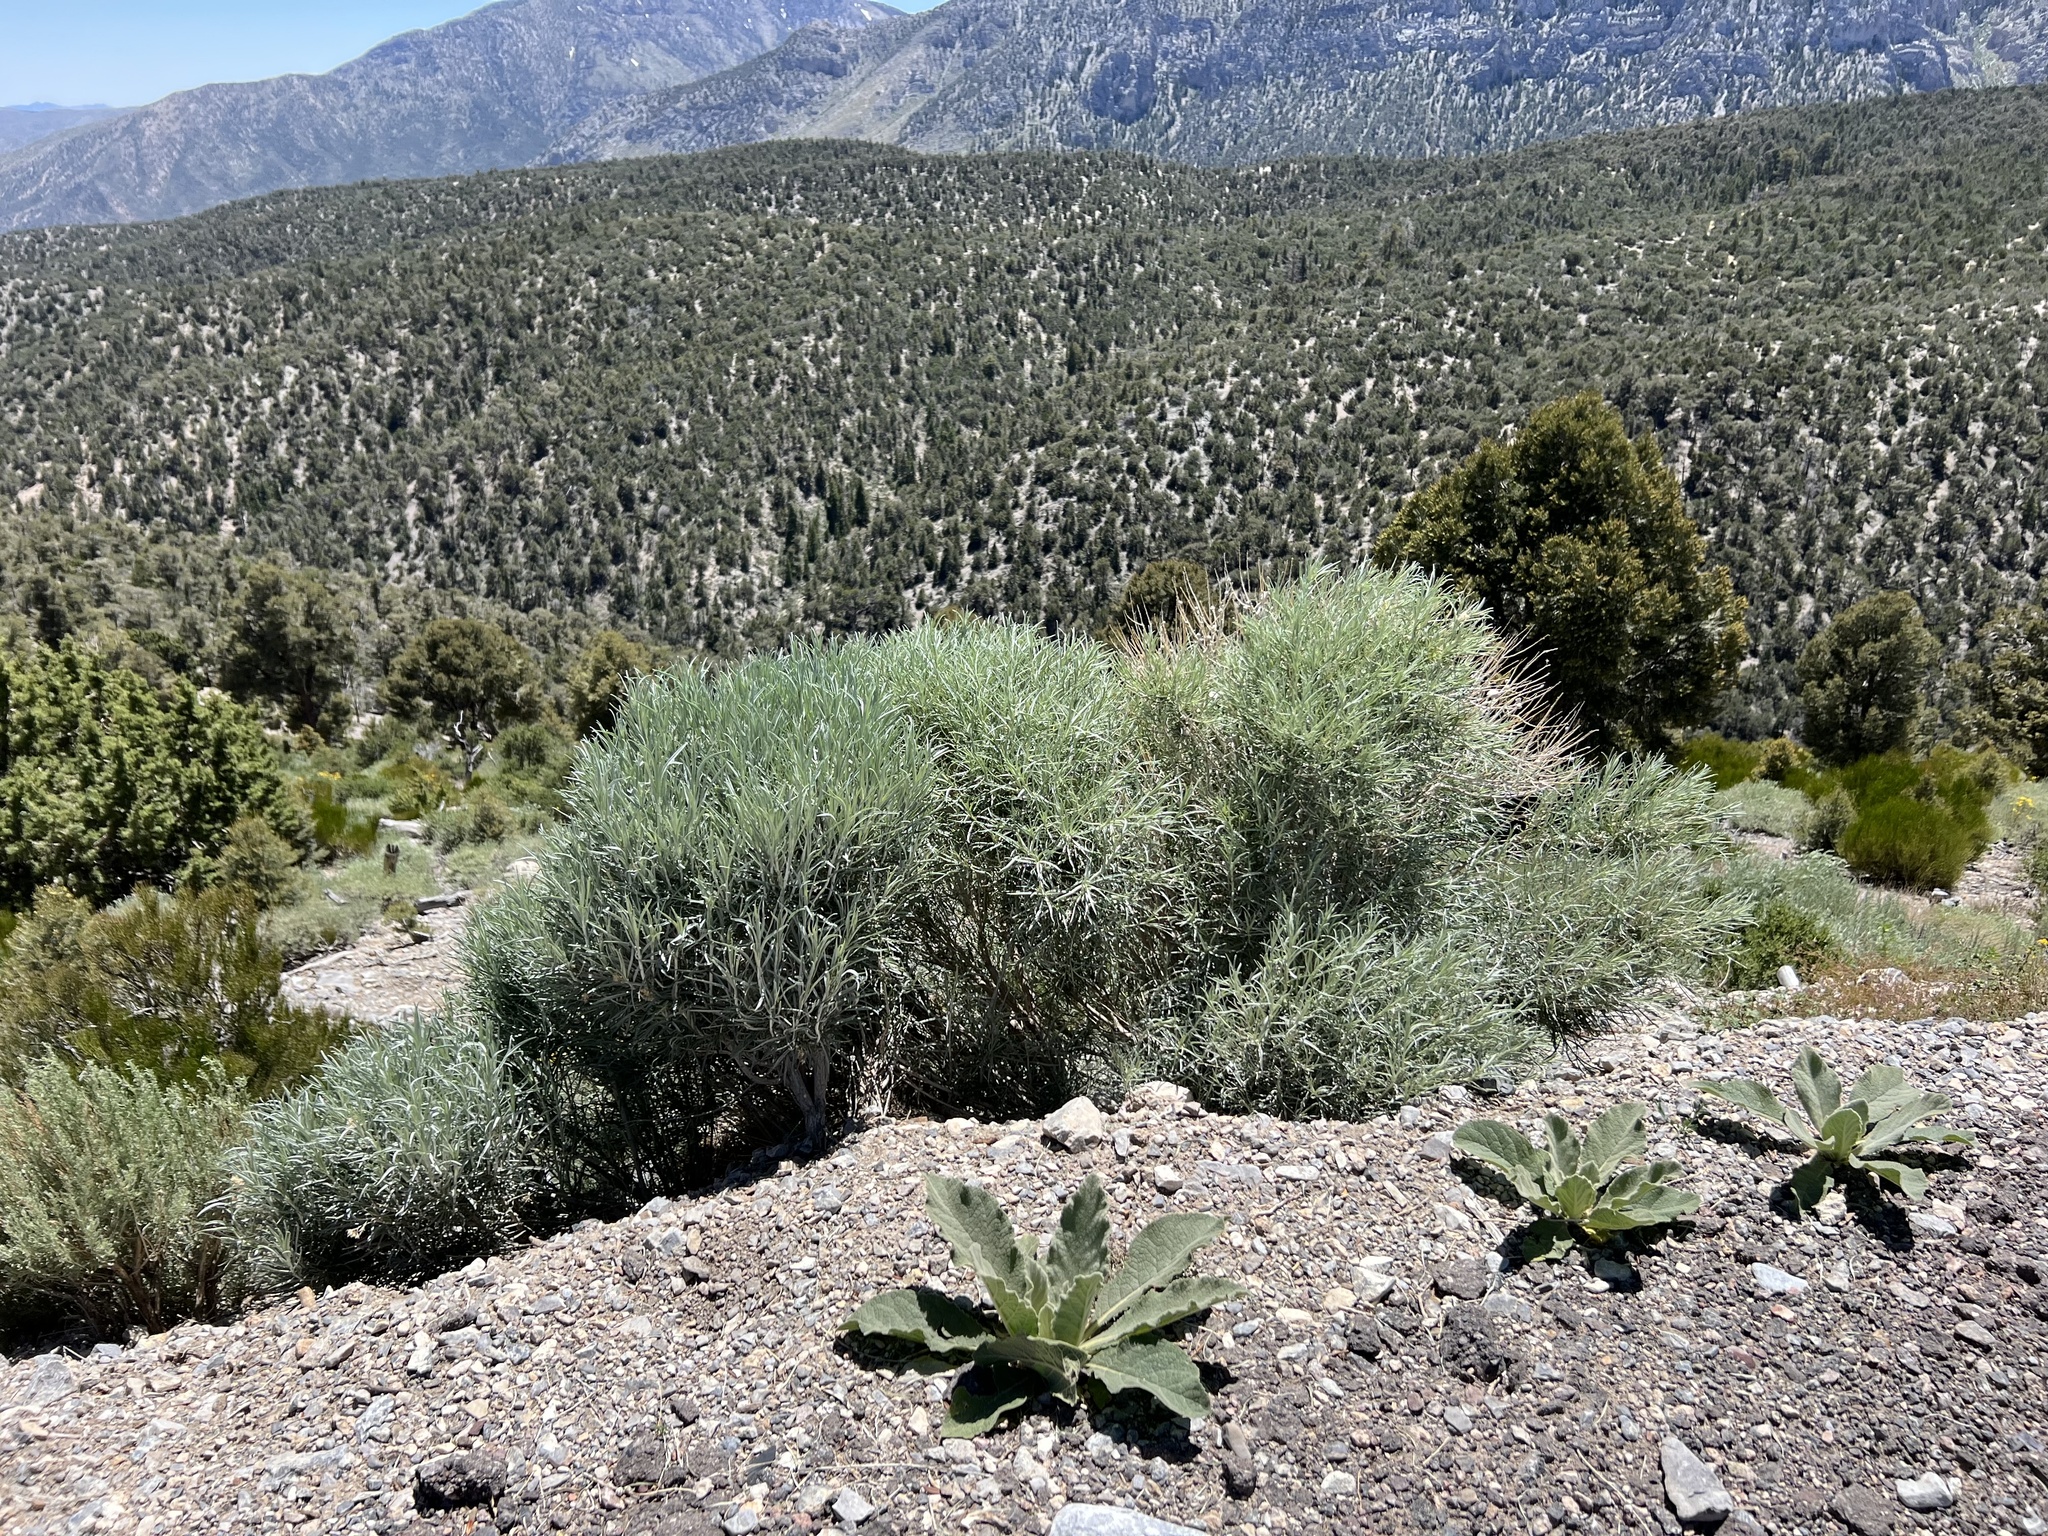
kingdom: Plantae
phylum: Tracheophyta
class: Magnoliopsida
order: Asterales
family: Asteraceae
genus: Ericameria
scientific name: Ericameria nauseosa
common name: Rubber rabbitbrush
